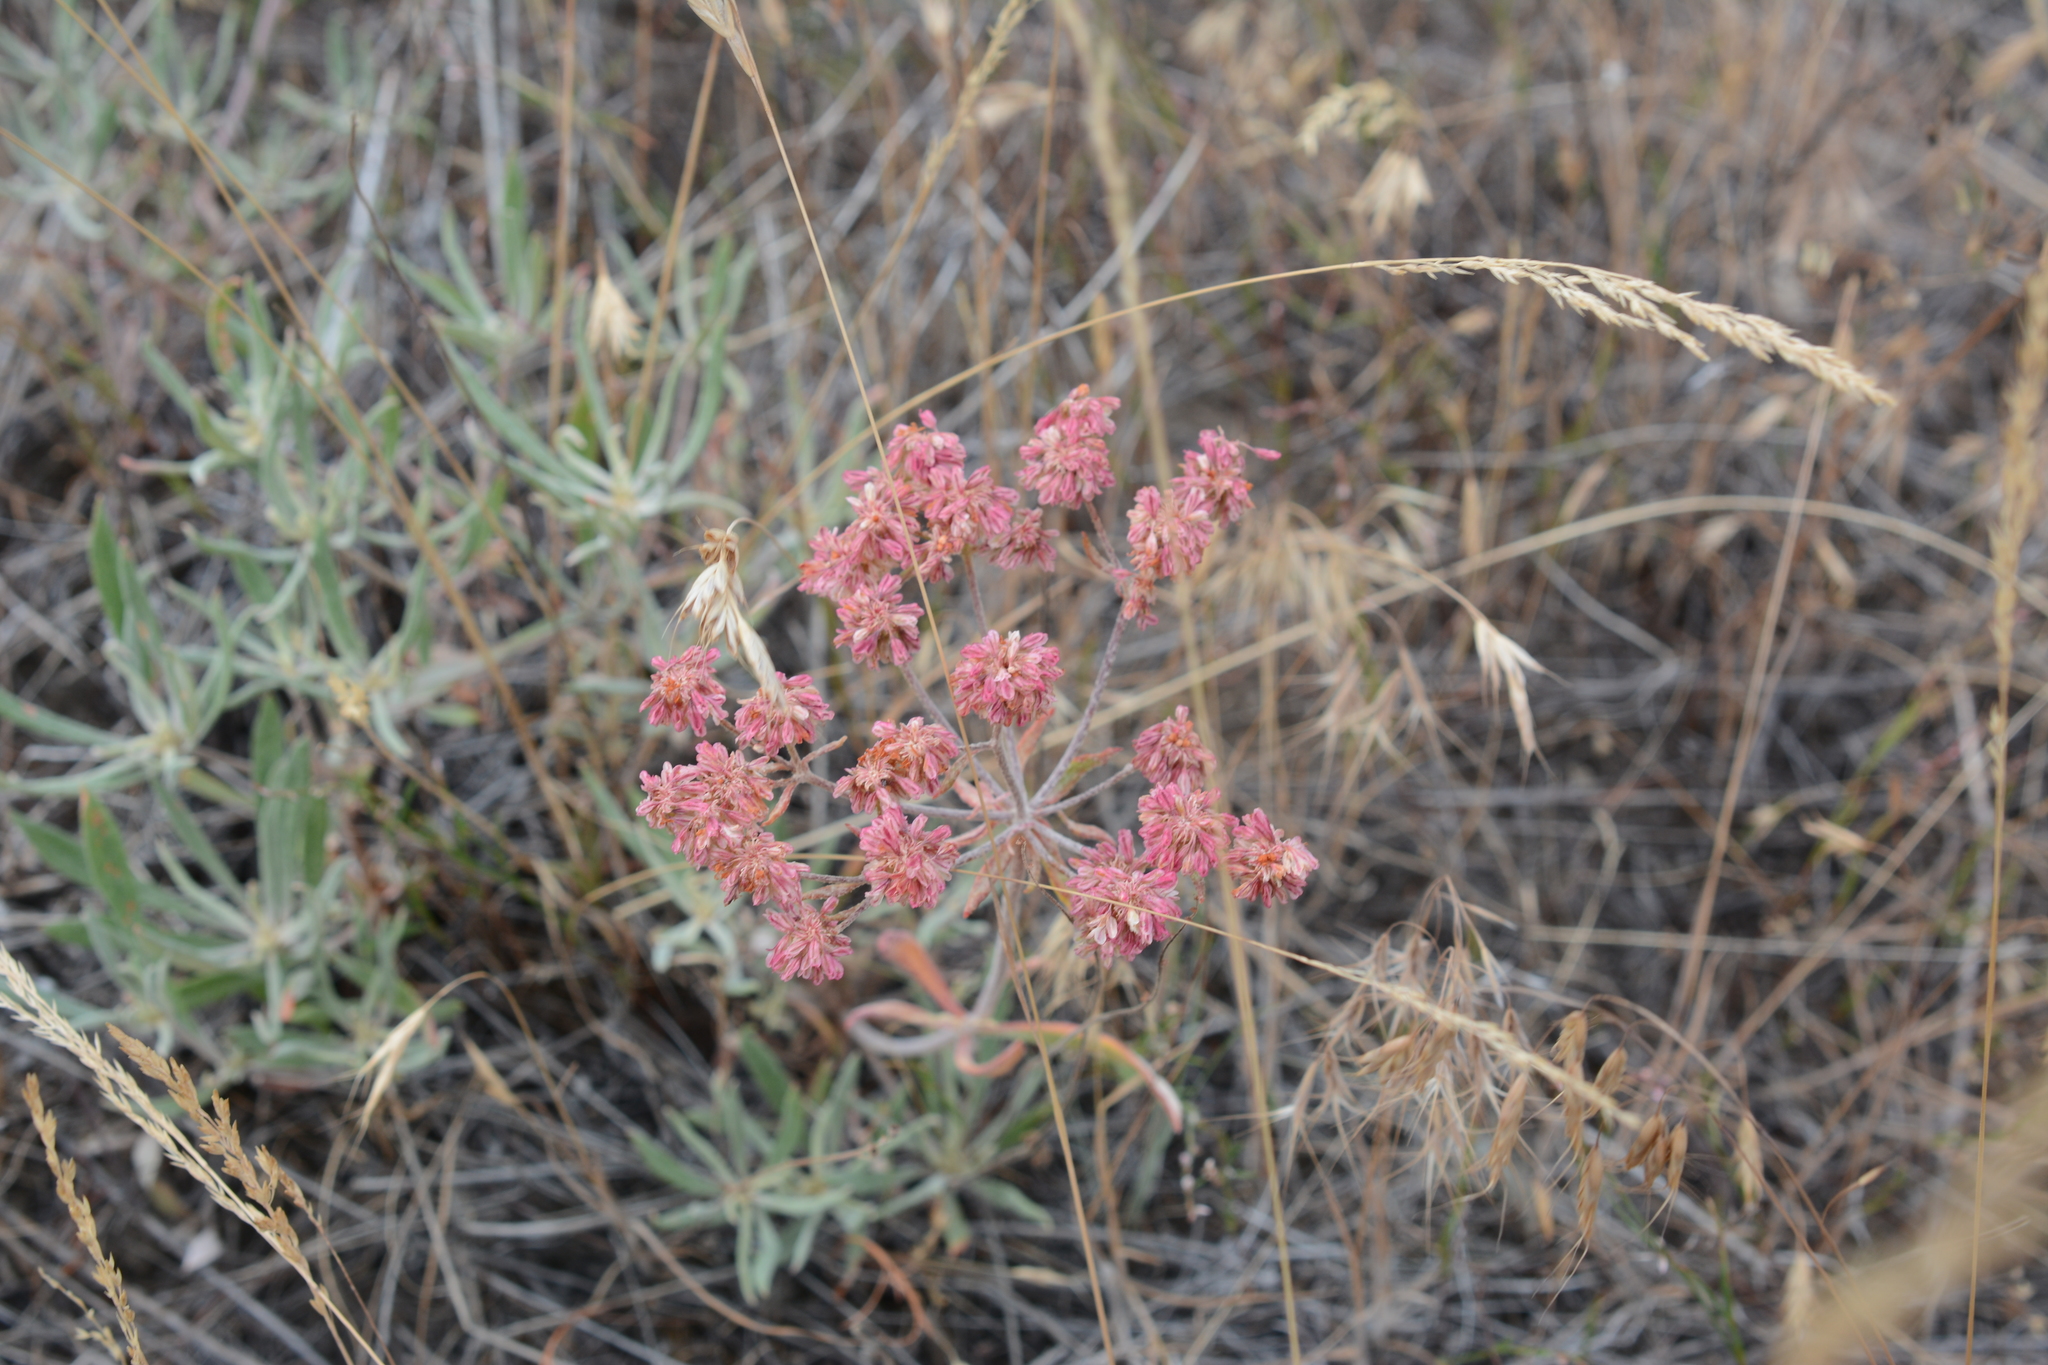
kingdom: Plantae
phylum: Tracheophyta
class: Magnoliopsida
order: Caryophyllales
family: Polygonaceae
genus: Eriogonum
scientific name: Eriogonum heracleoides
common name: Wyeth's buckwheat
